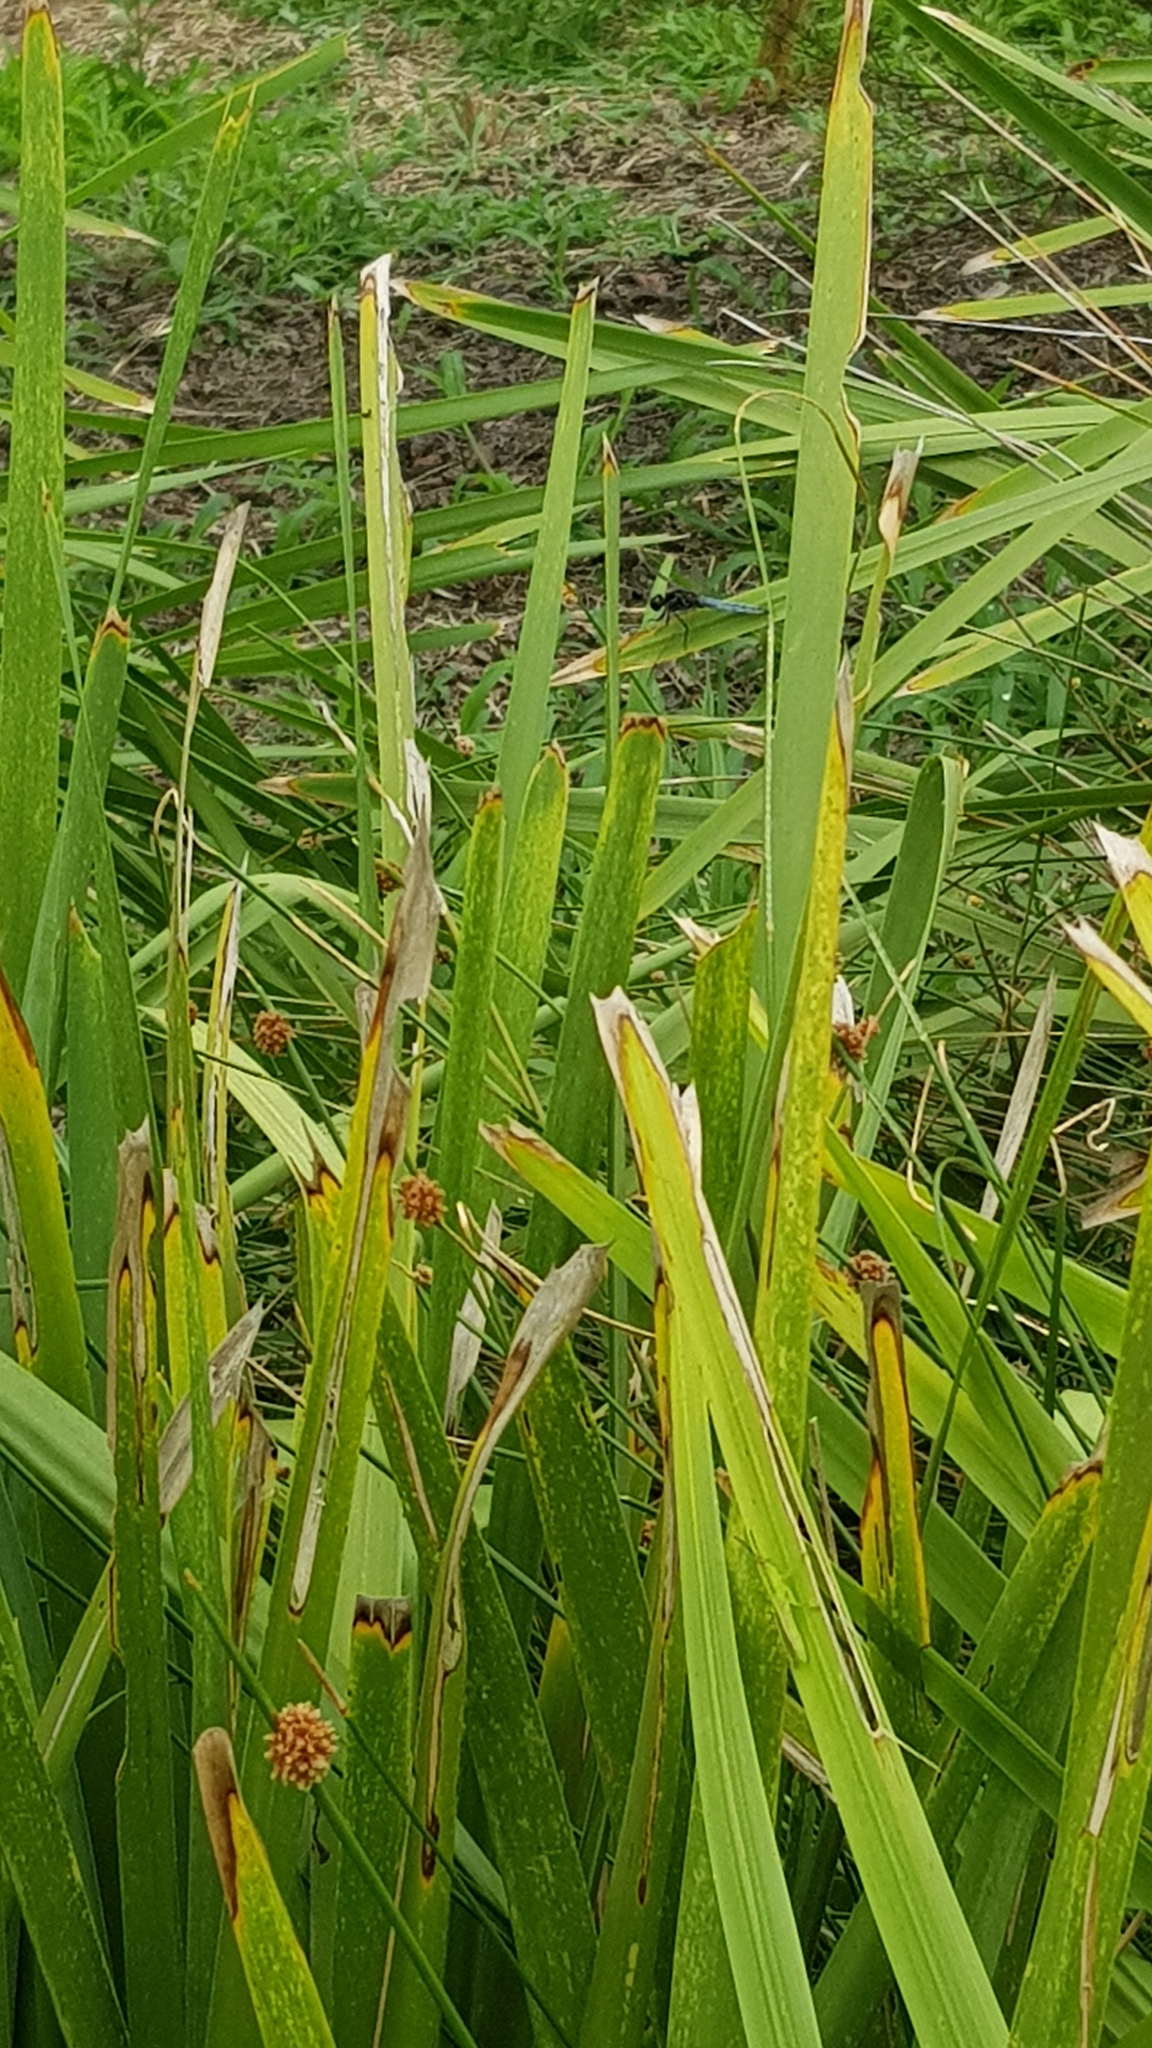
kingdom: Animalia
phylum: Arthropoda
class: Insecta
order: Odonata
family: Libellulidae
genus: Crocothemis
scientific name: Crocothemis nigrifrons
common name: Black-headed skimmer
